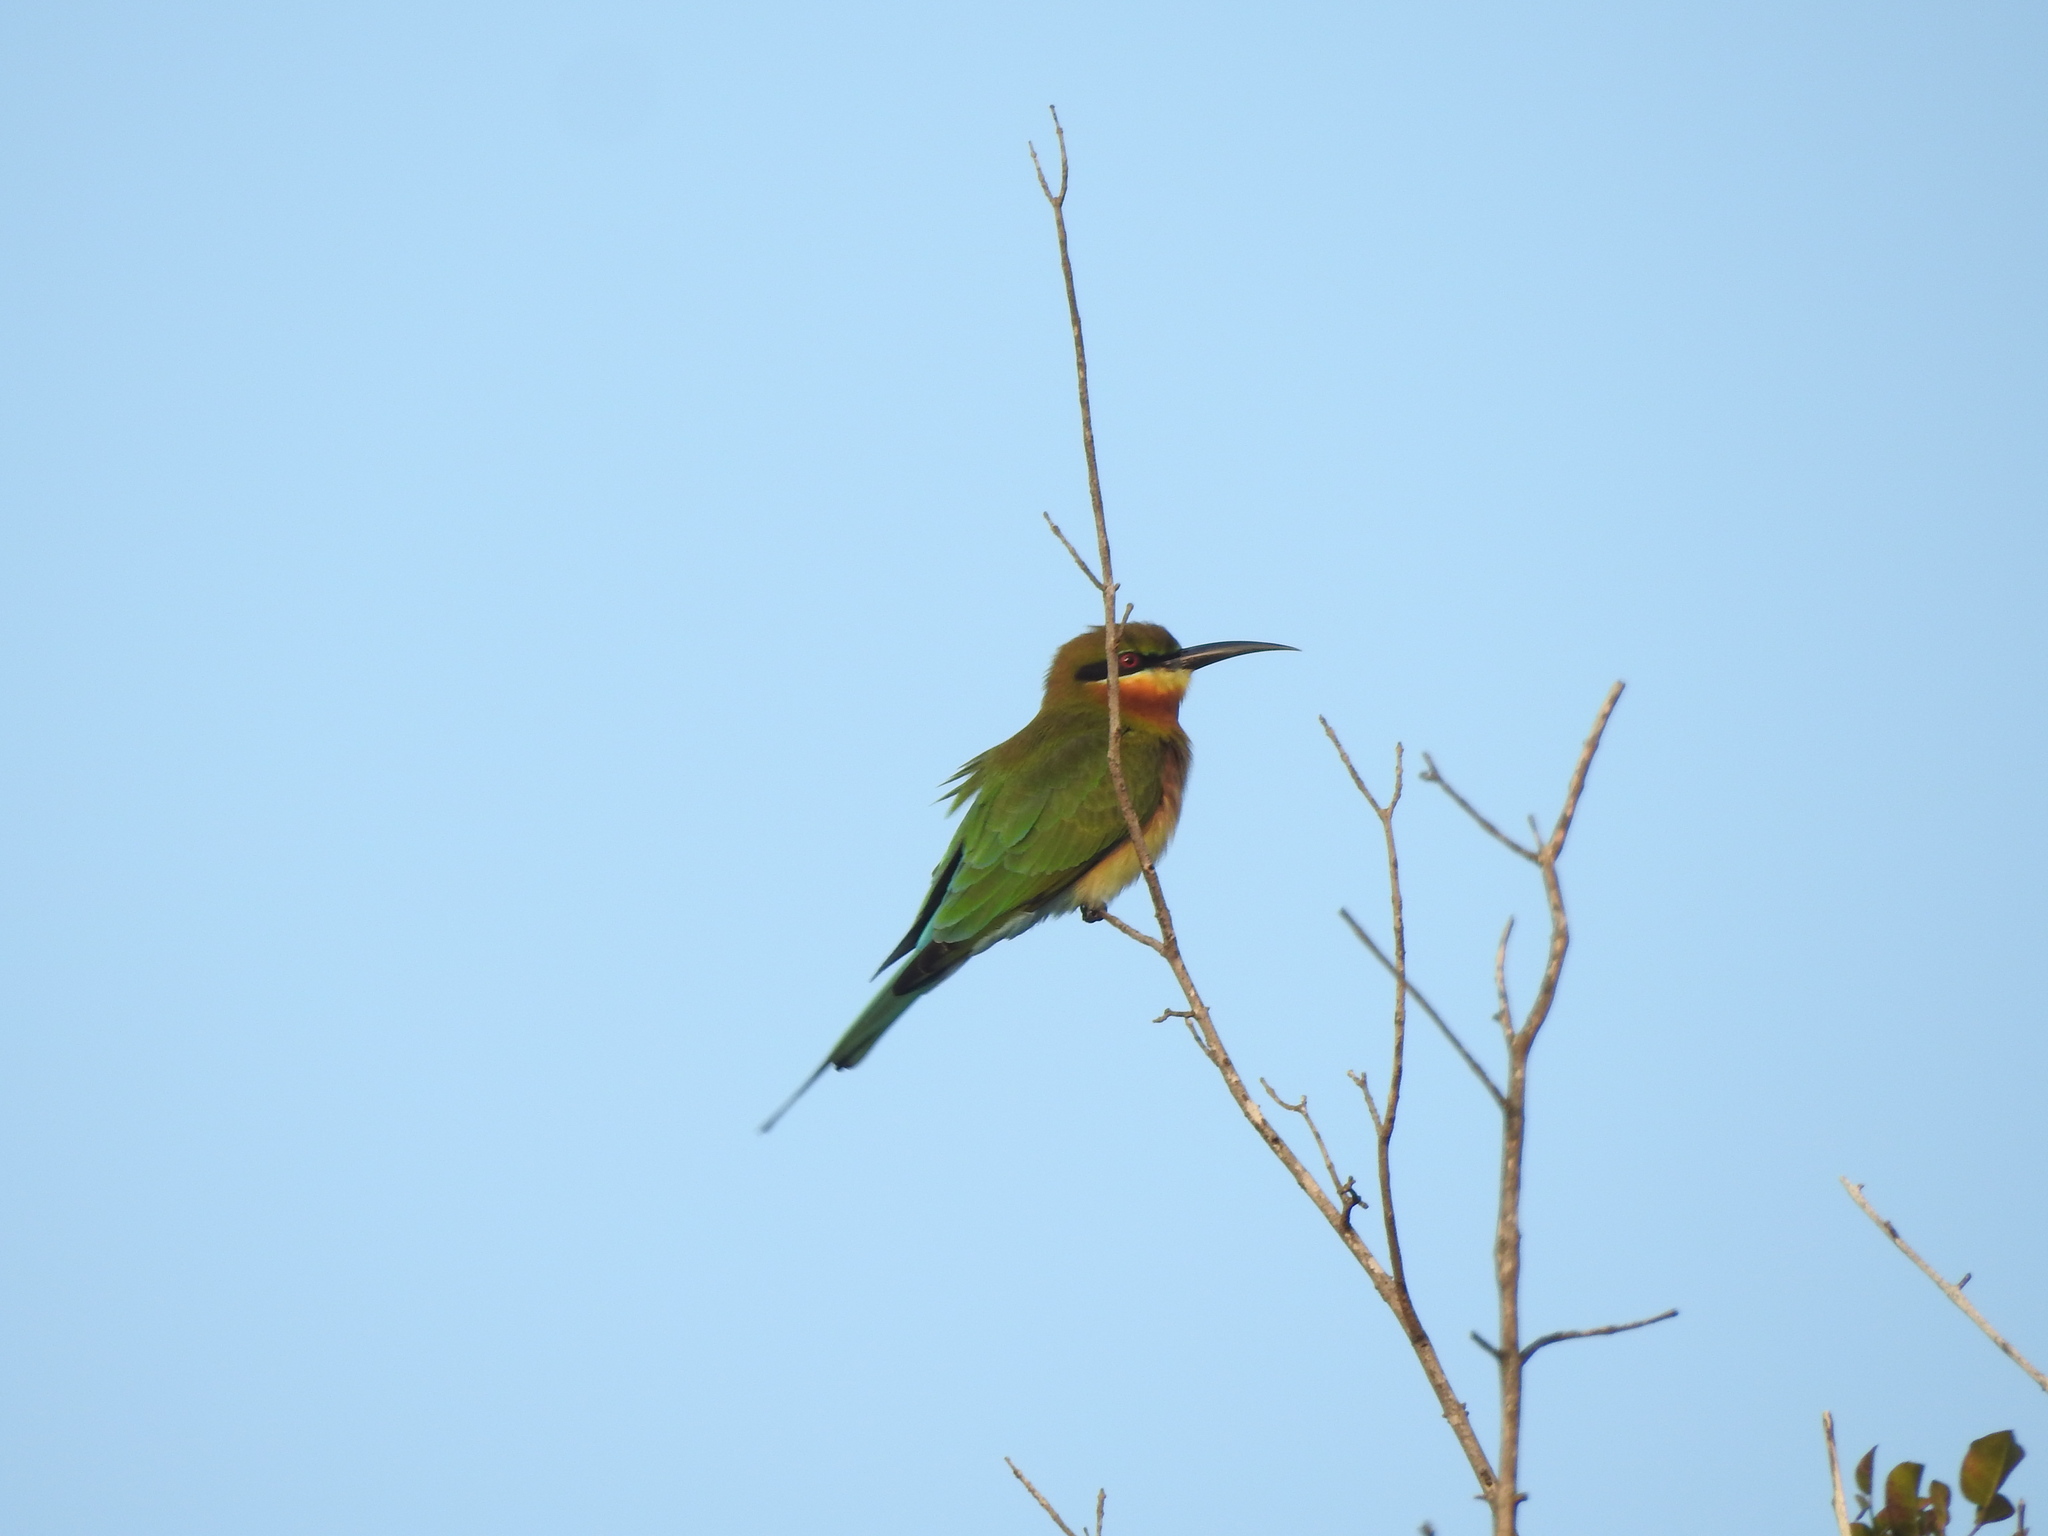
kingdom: Animalia
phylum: Chordata
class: Aves
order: Coraciiformes
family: Meropidae
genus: Merops
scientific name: Merops philippinus
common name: Blue-tailed bee-eater
